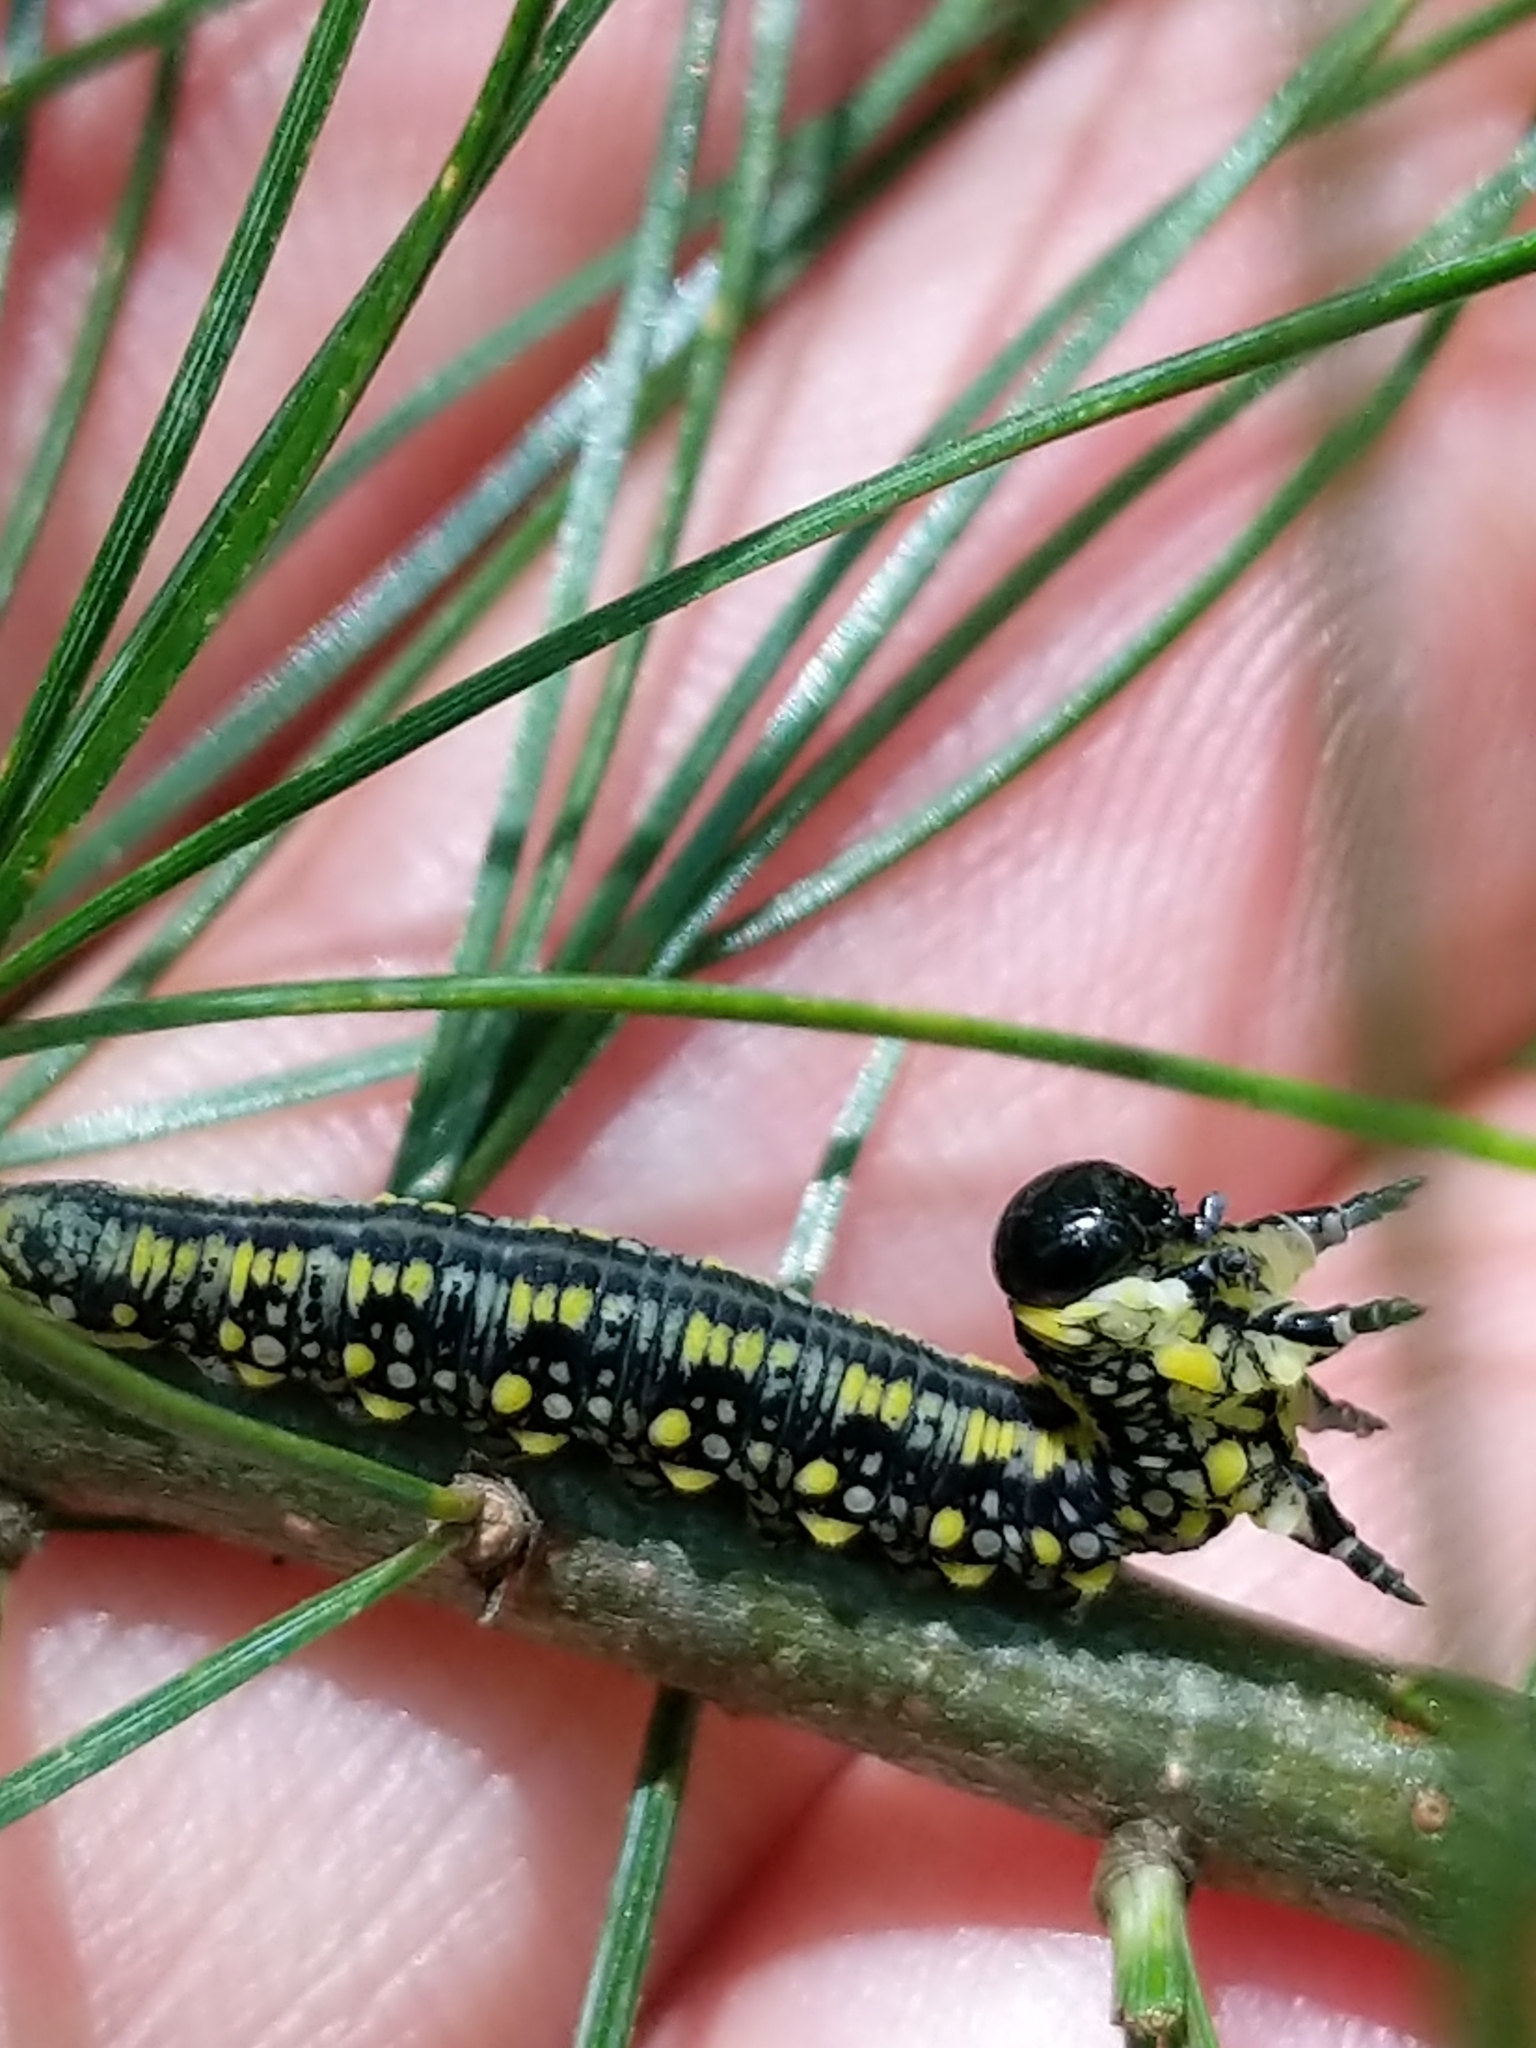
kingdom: Animalia
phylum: Arthropoda
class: Insecta
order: Hymenoptera
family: Diprionidae
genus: Diprion
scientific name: Diprion similis
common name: Pine sawfly
